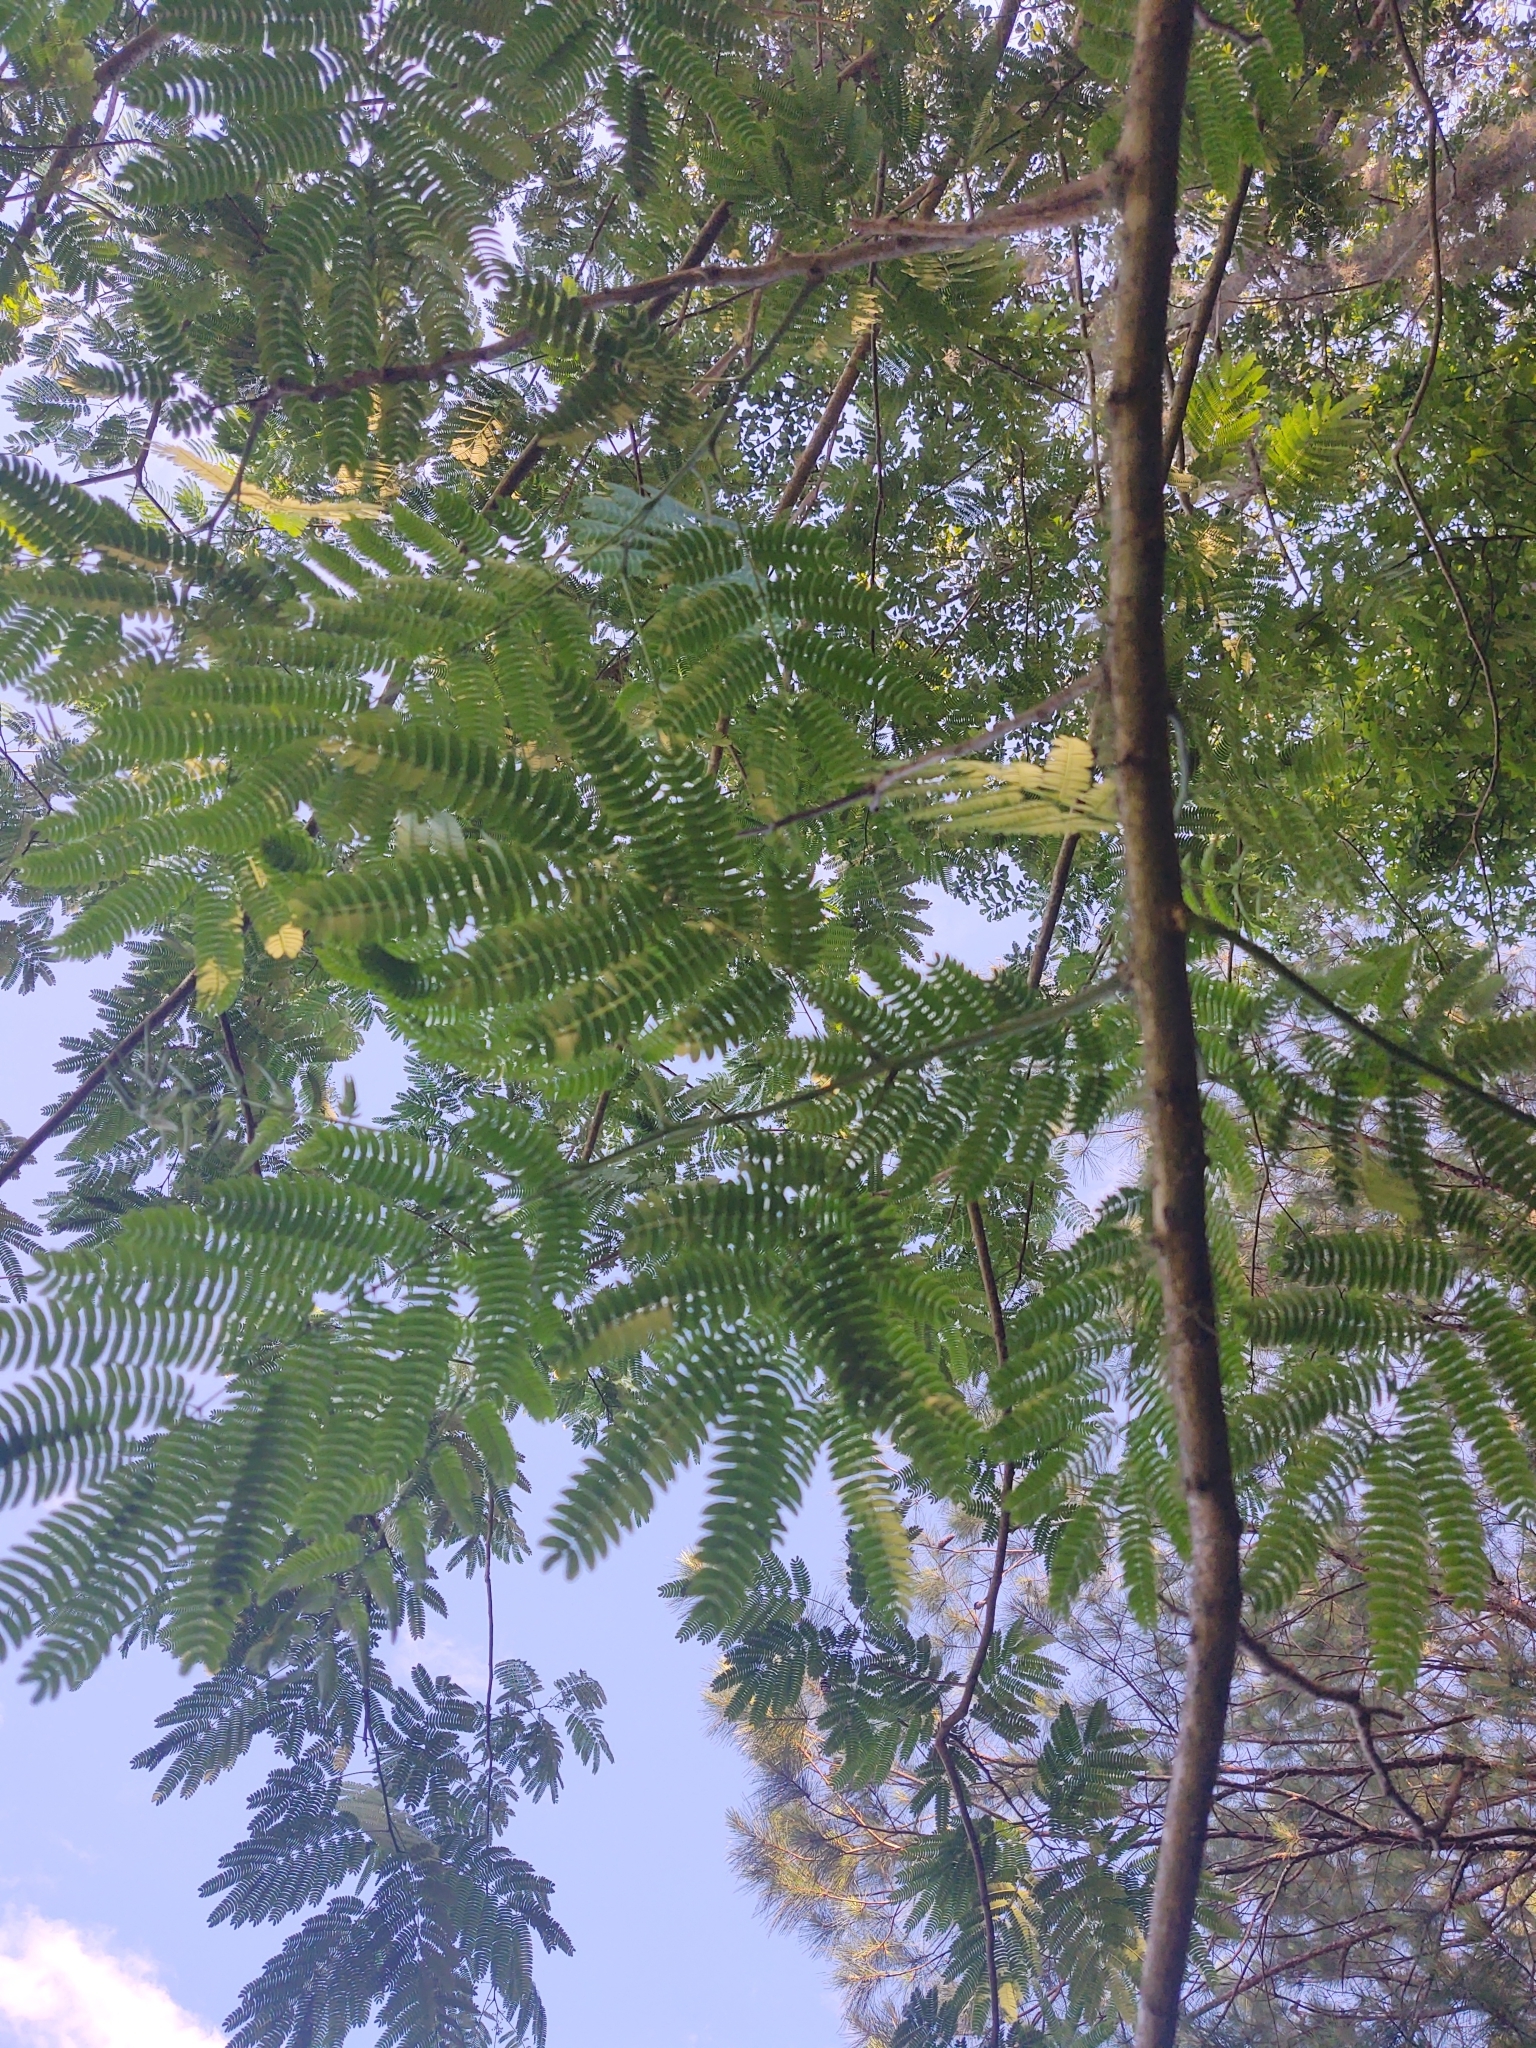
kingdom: Plantae
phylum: Tracheophyta
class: Magnoliopsida
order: Fabales
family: Fabaceae
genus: Albizia
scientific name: Albizia julibrissin
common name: Silktree
